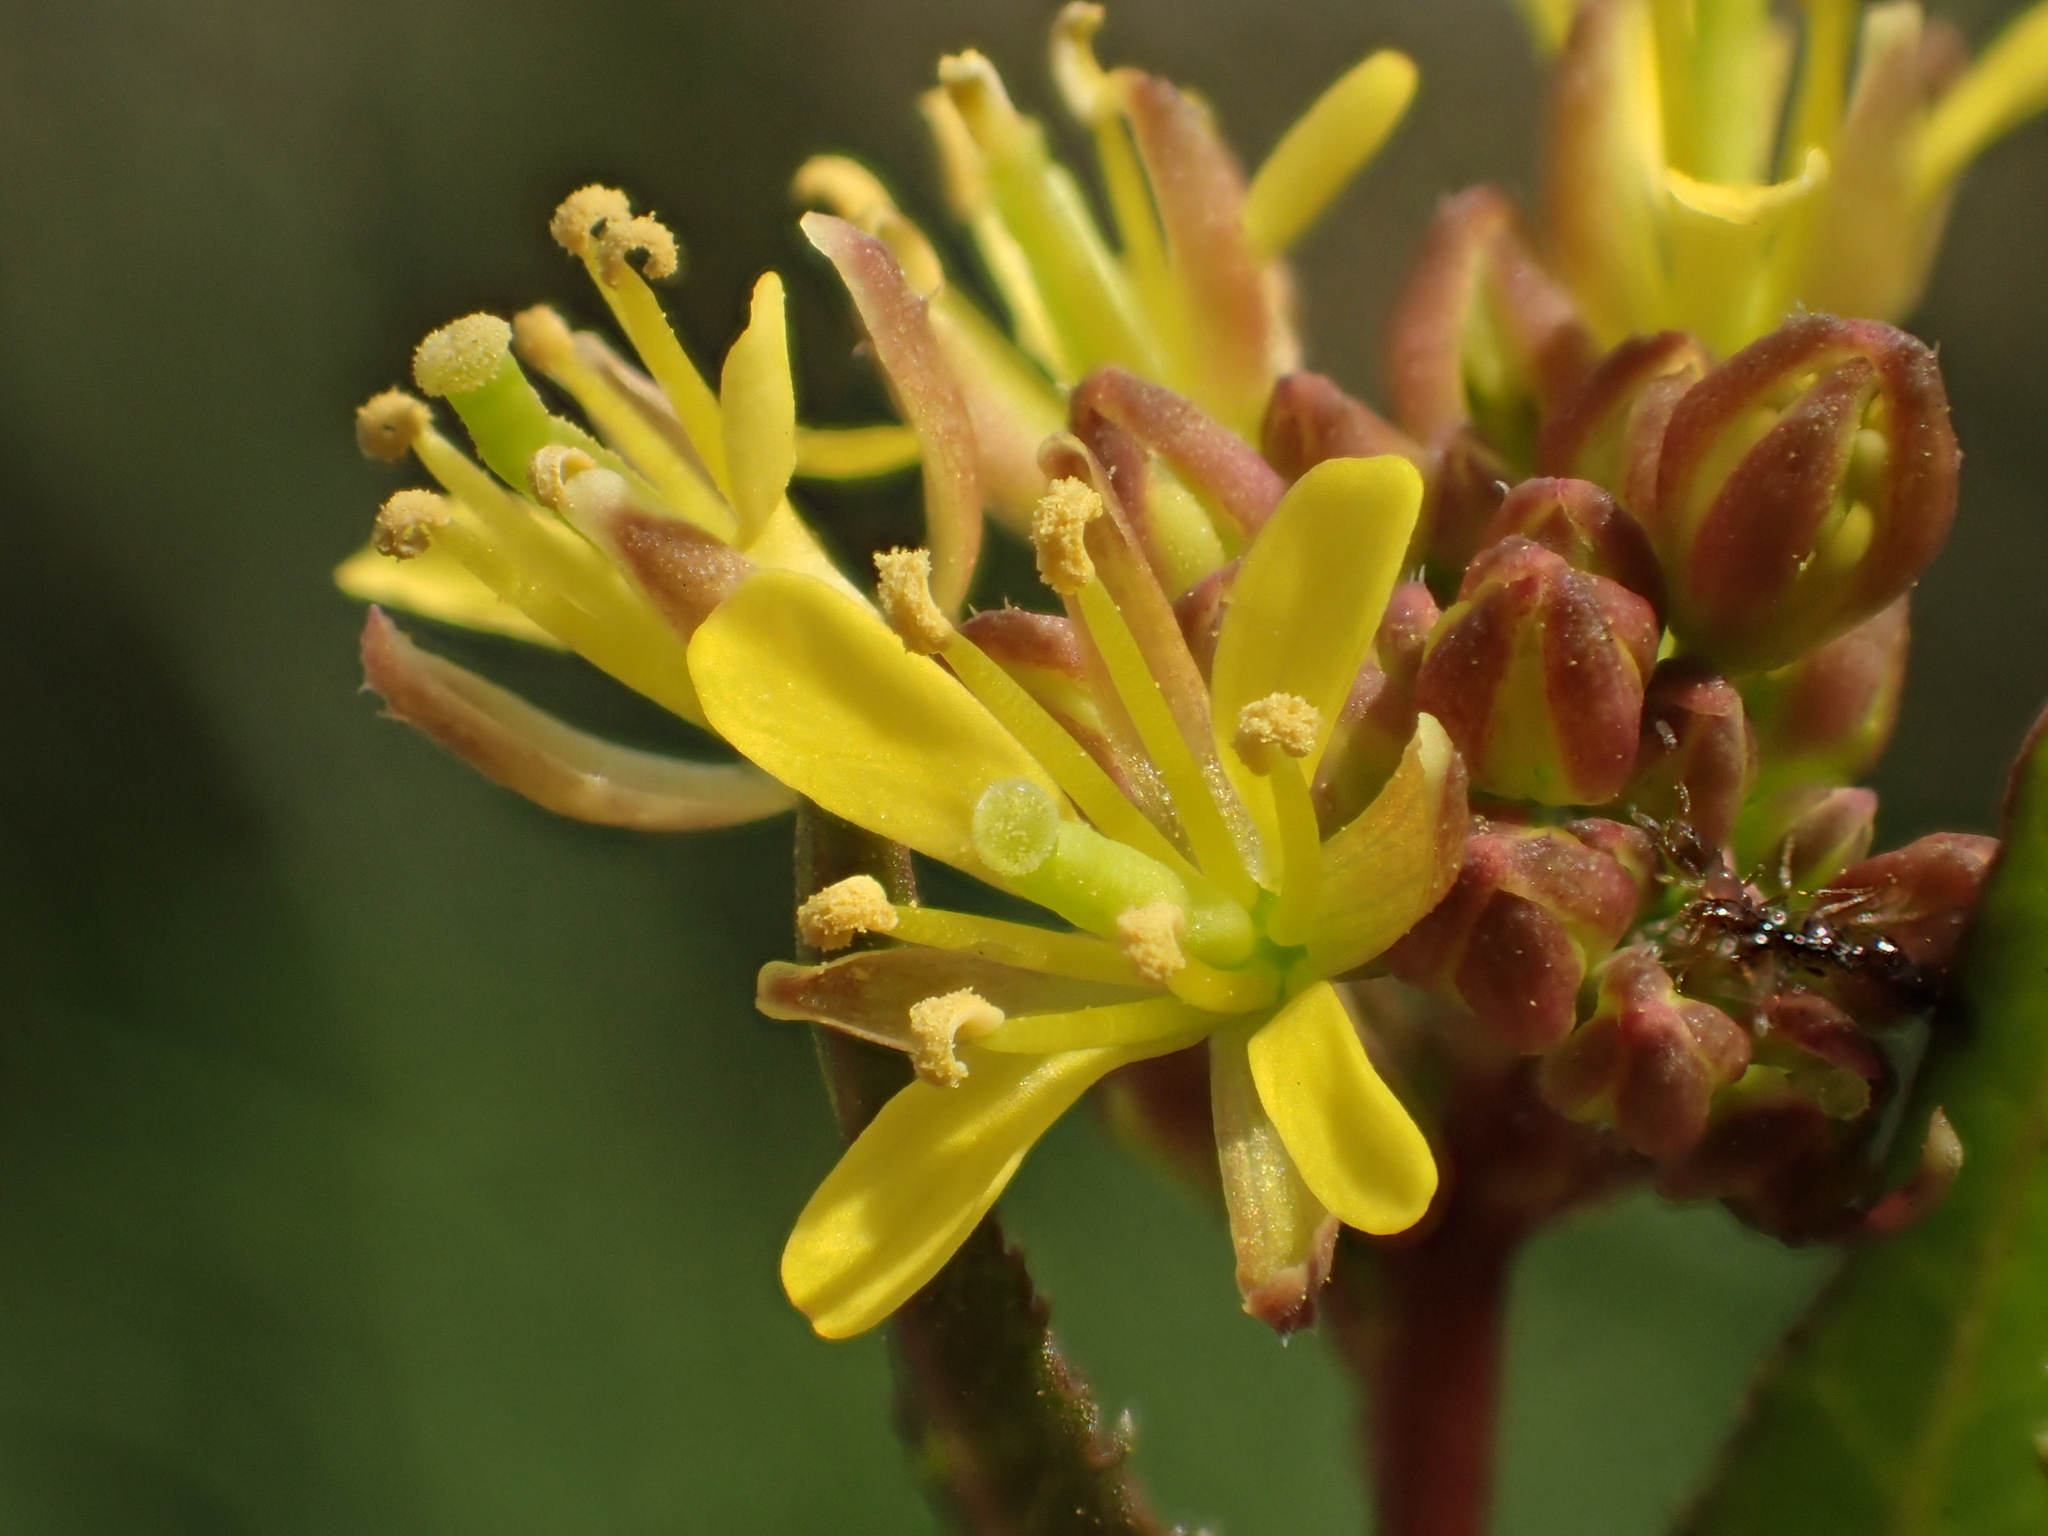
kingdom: Plantae
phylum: Tracheophyta
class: Magnoliopsida
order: Brassicales
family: Brassicaceae
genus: Rorippa
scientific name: Rorippa indica
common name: Variableleaf yellowcress
